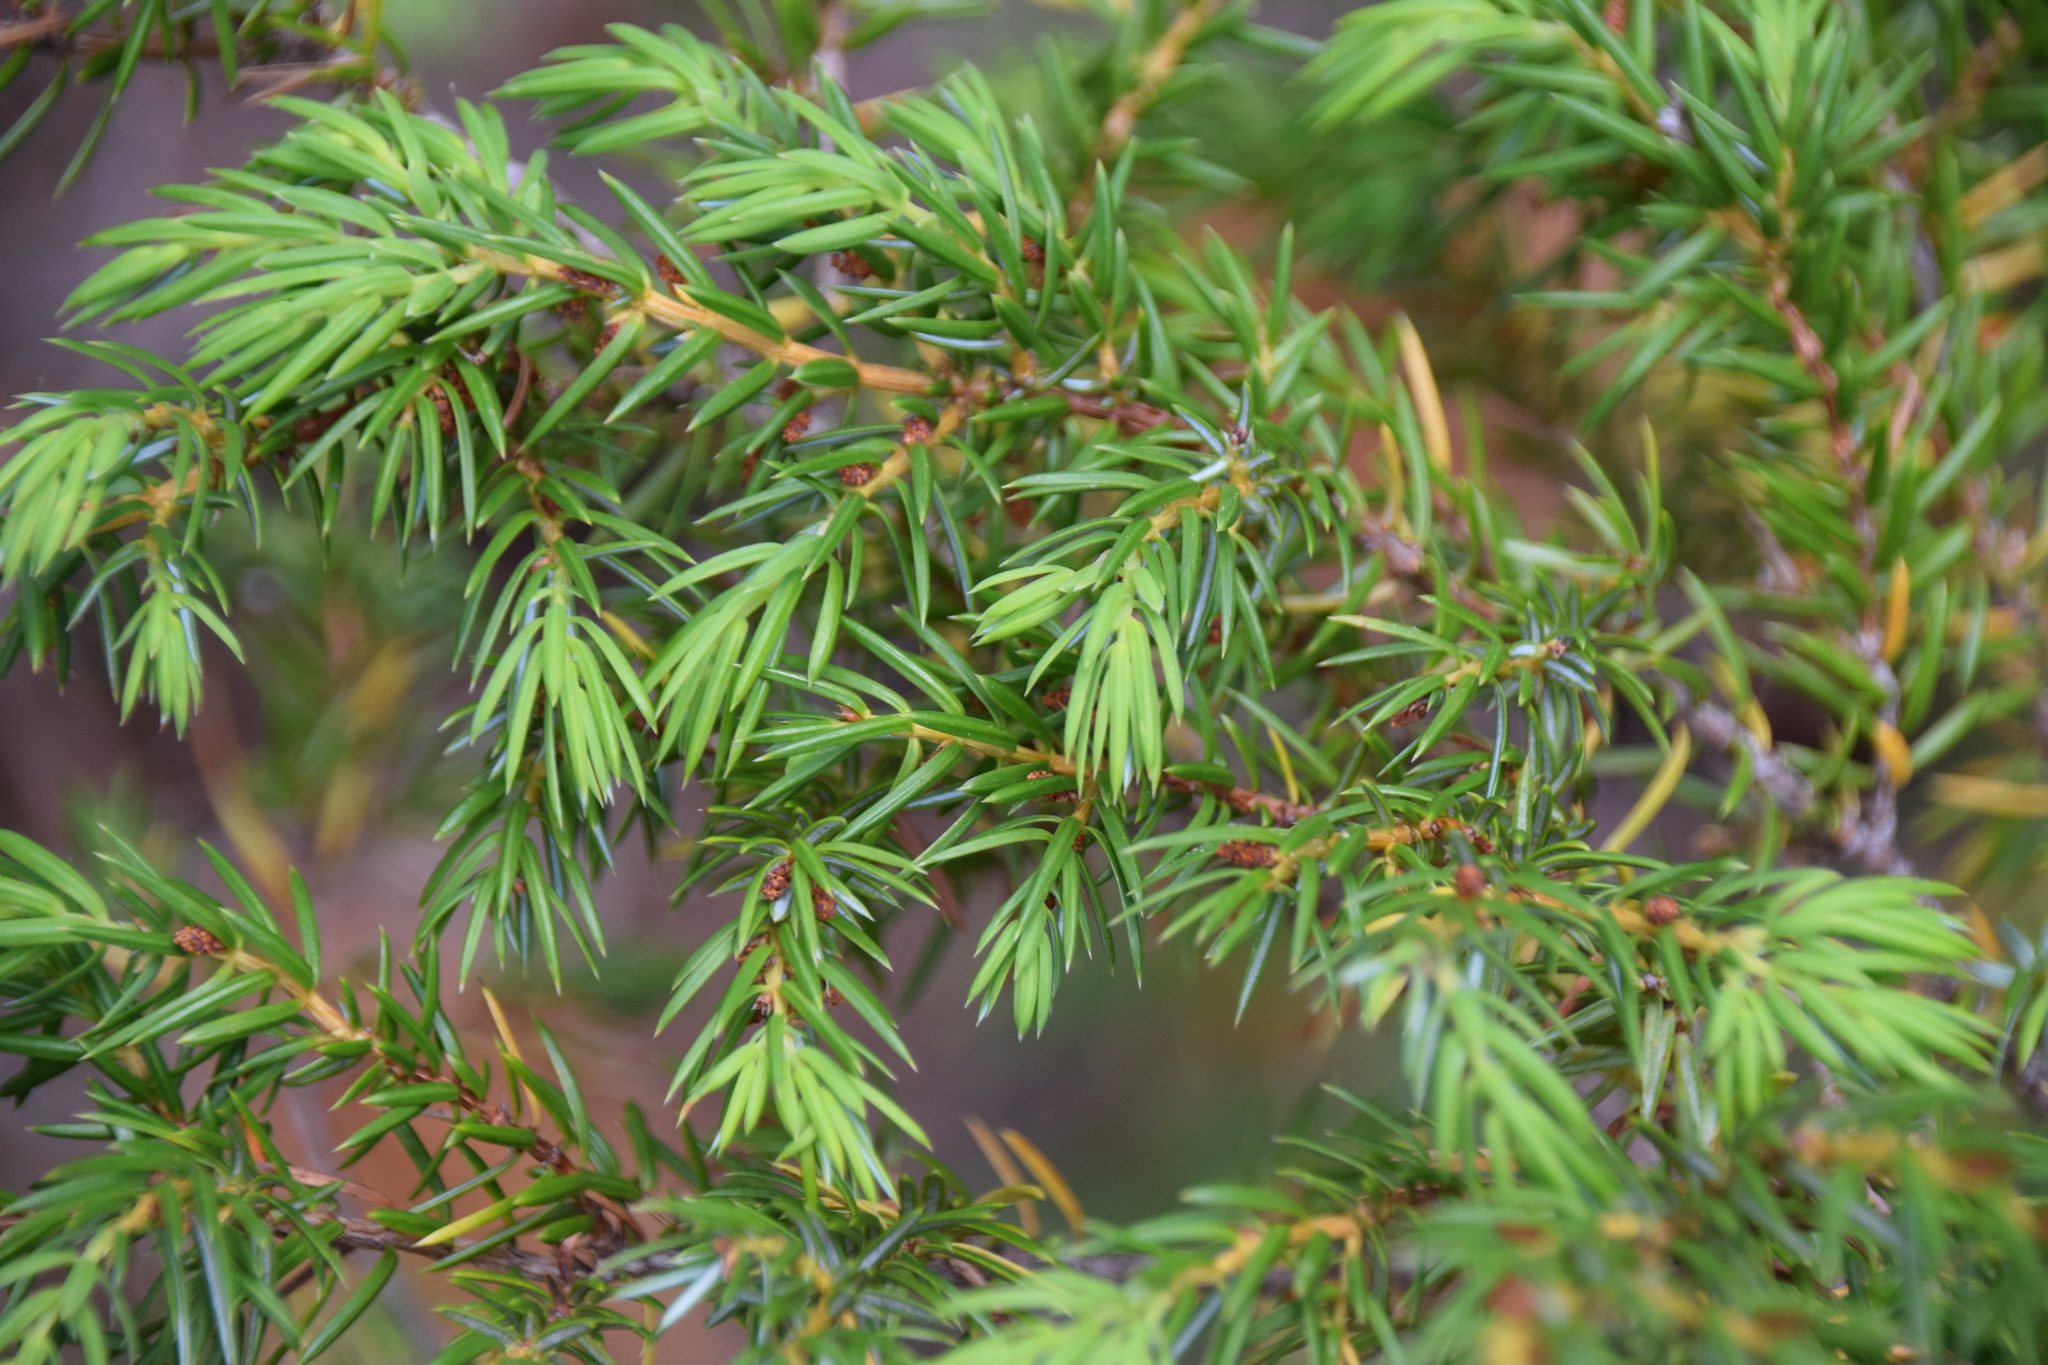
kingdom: Plantae
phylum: Tracheophyta
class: Pinopsida
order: Pinales
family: Cupressaceae
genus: Juniperus
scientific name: Juniperus communis
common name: Common juniper
